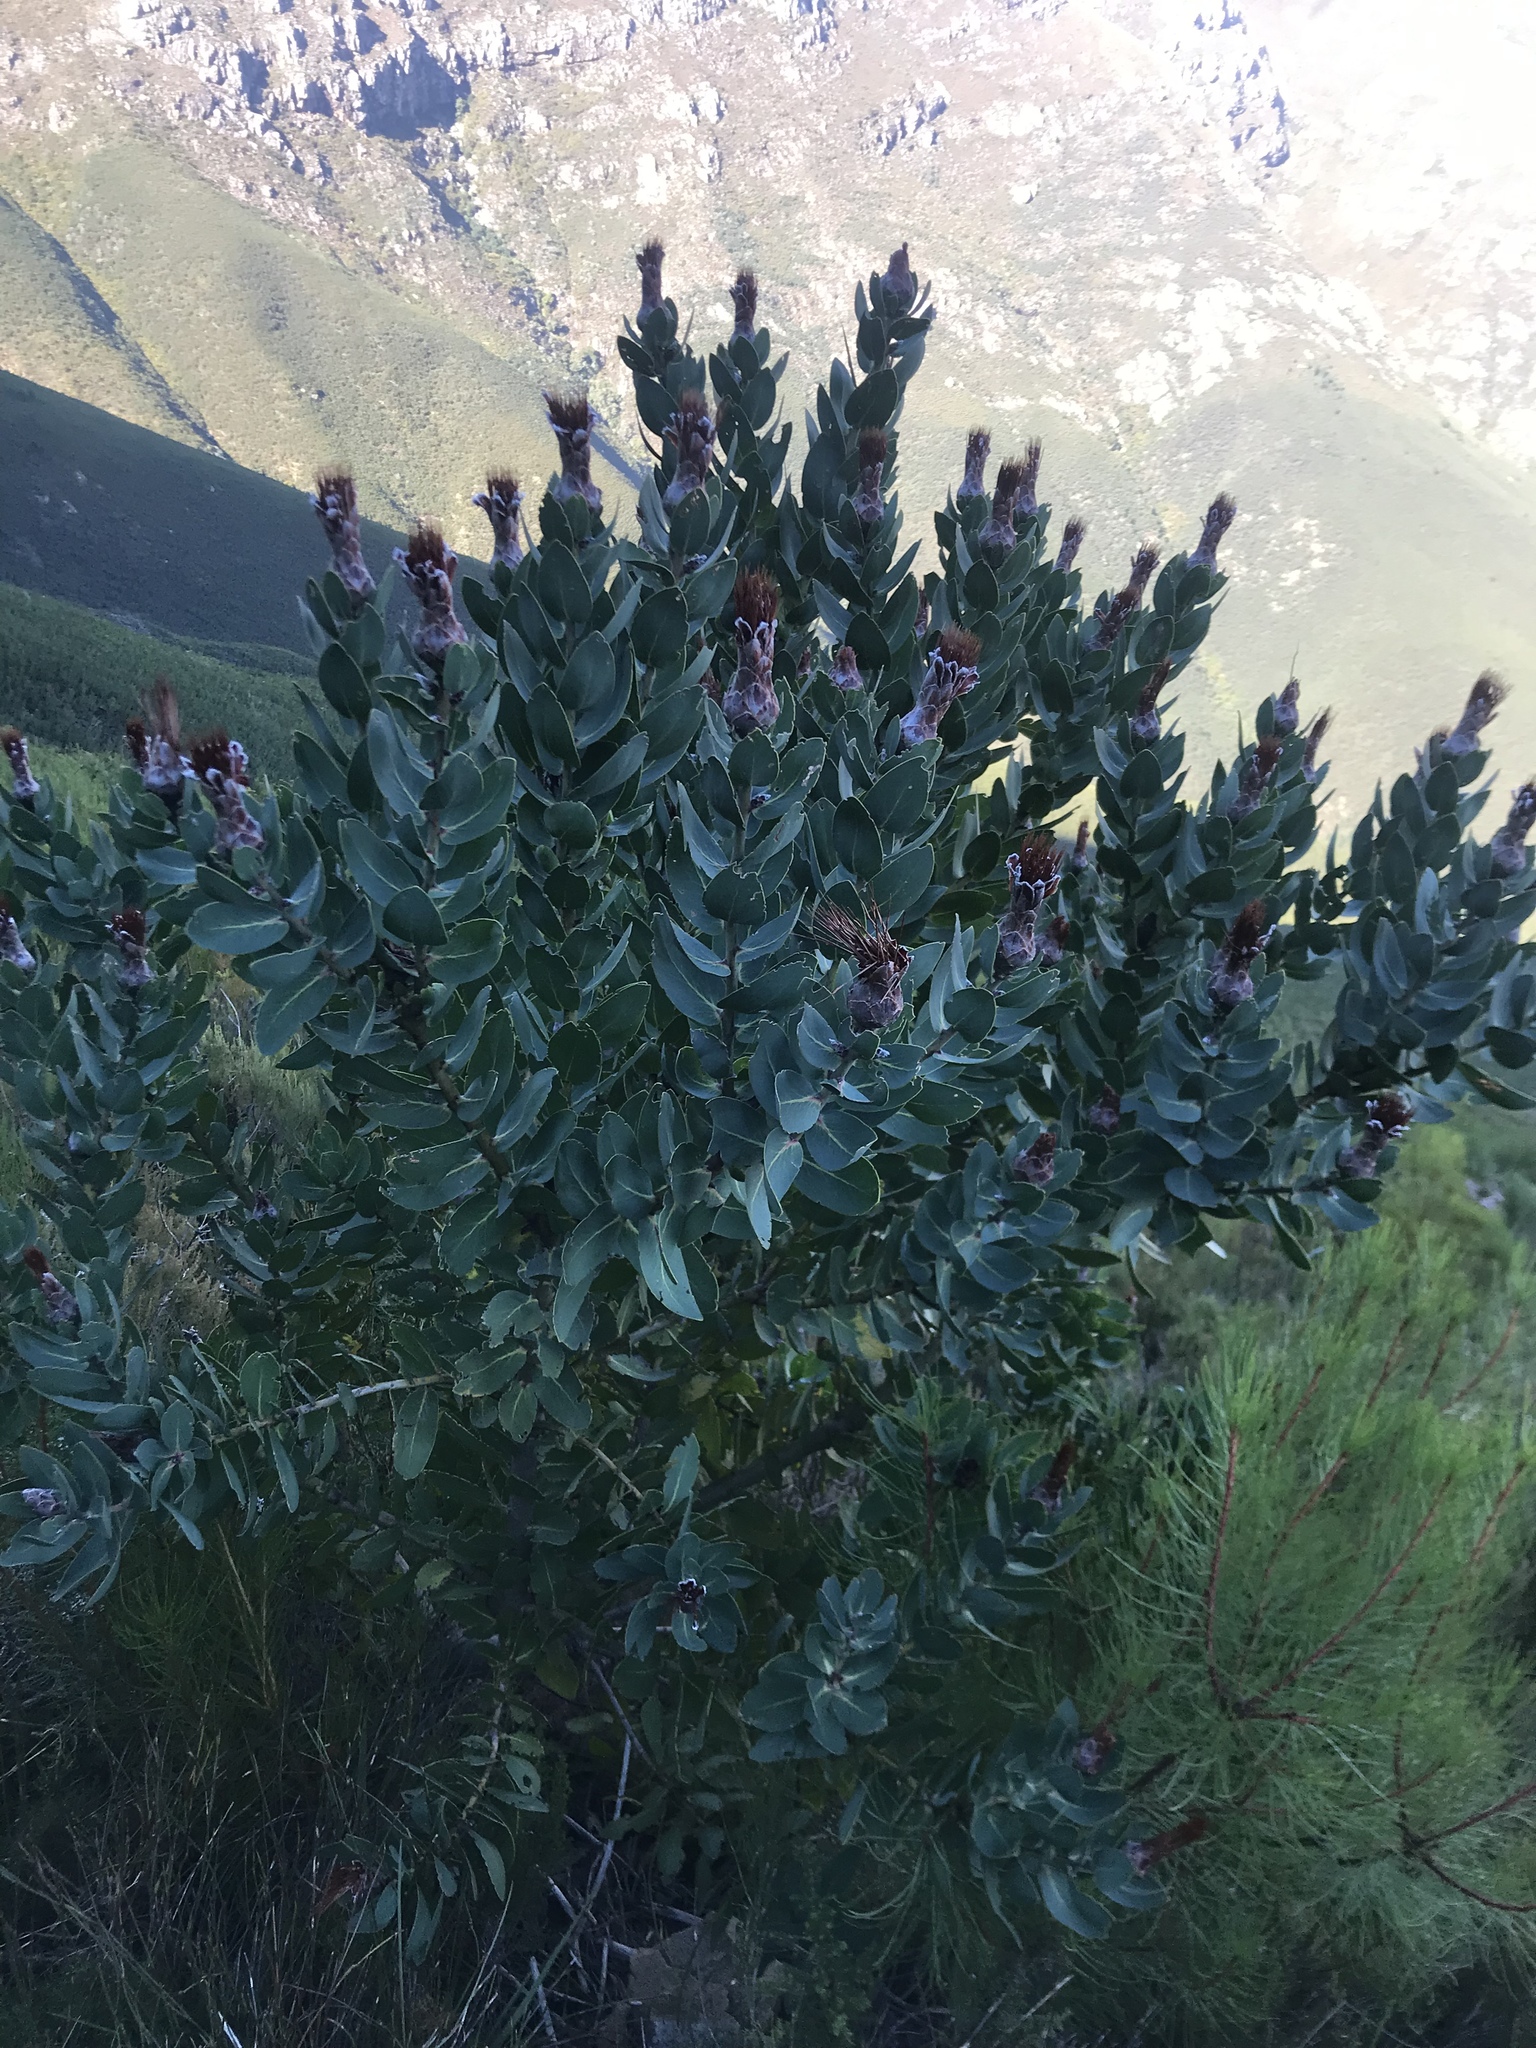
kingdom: Plantae
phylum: Tracheophyta
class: Magnoliopsida
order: Proteales
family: Proteaceae
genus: Protea
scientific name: Protea lacticolor
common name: Hottentot sugarbush
